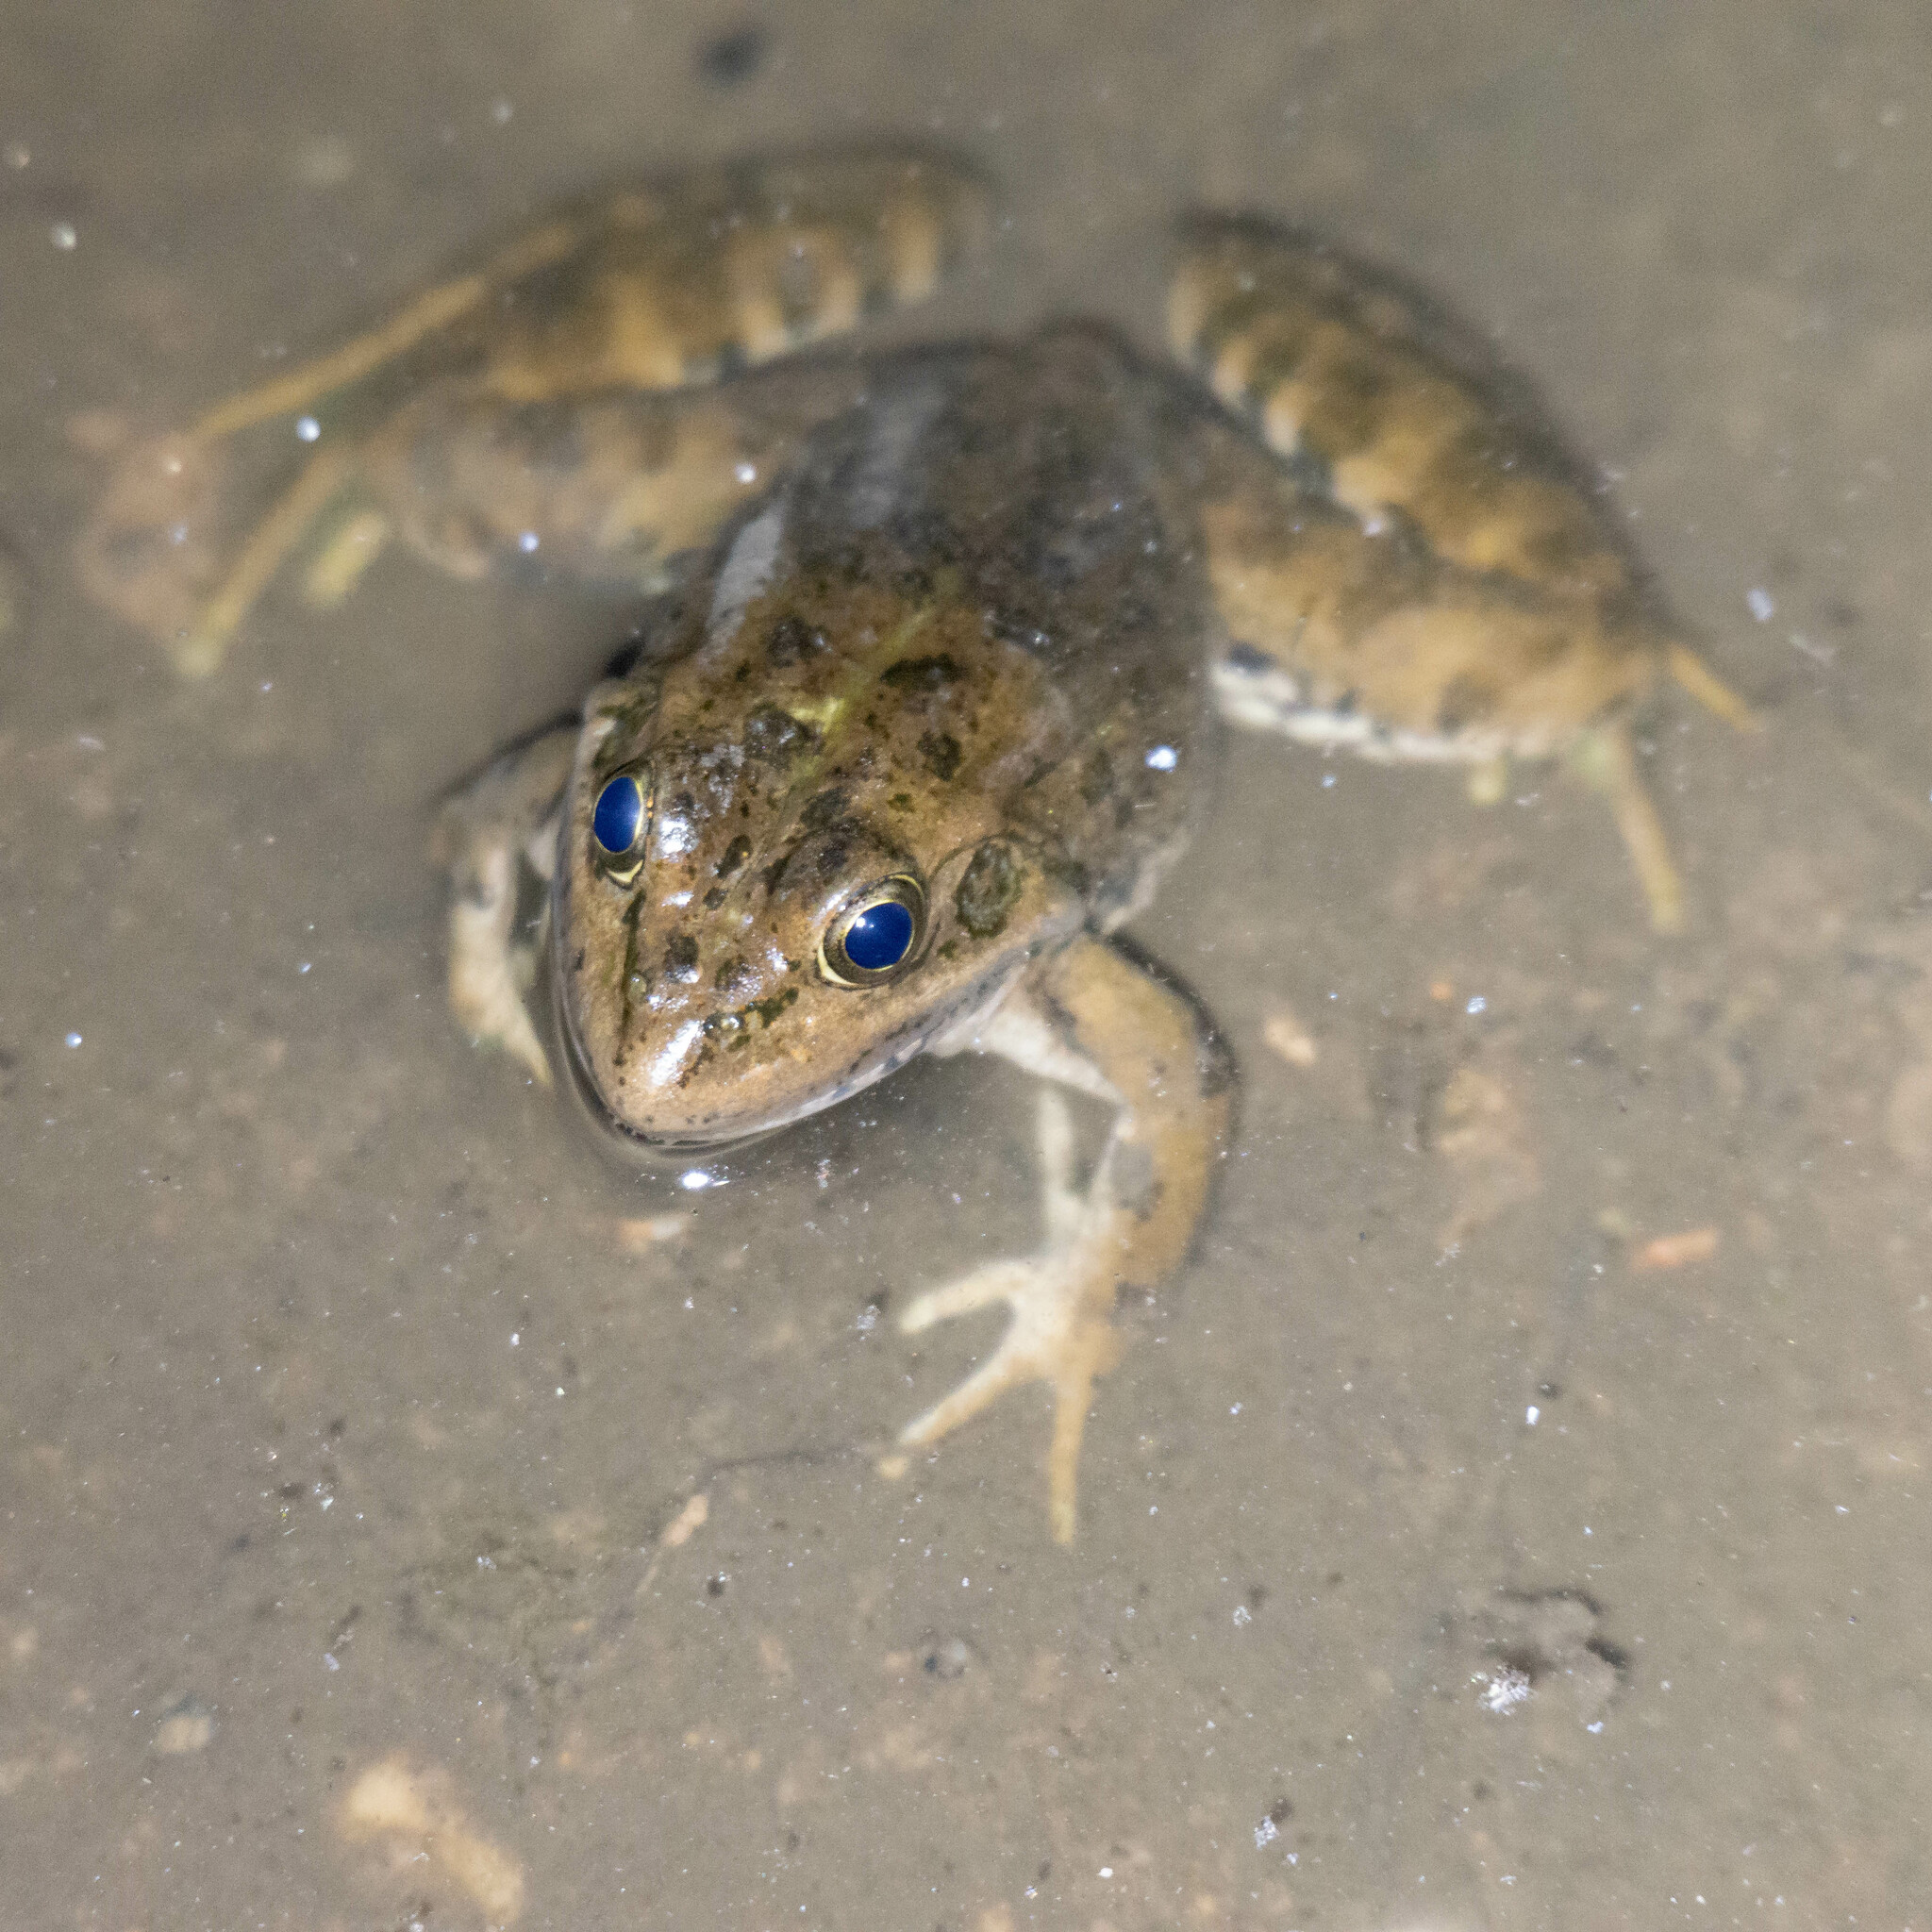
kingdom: Animalia
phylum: Chordata
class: Amphibia
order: Anura
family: Ranidae
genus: Pelophylax
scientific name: Pelophylax perezi
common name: Perez's frog
